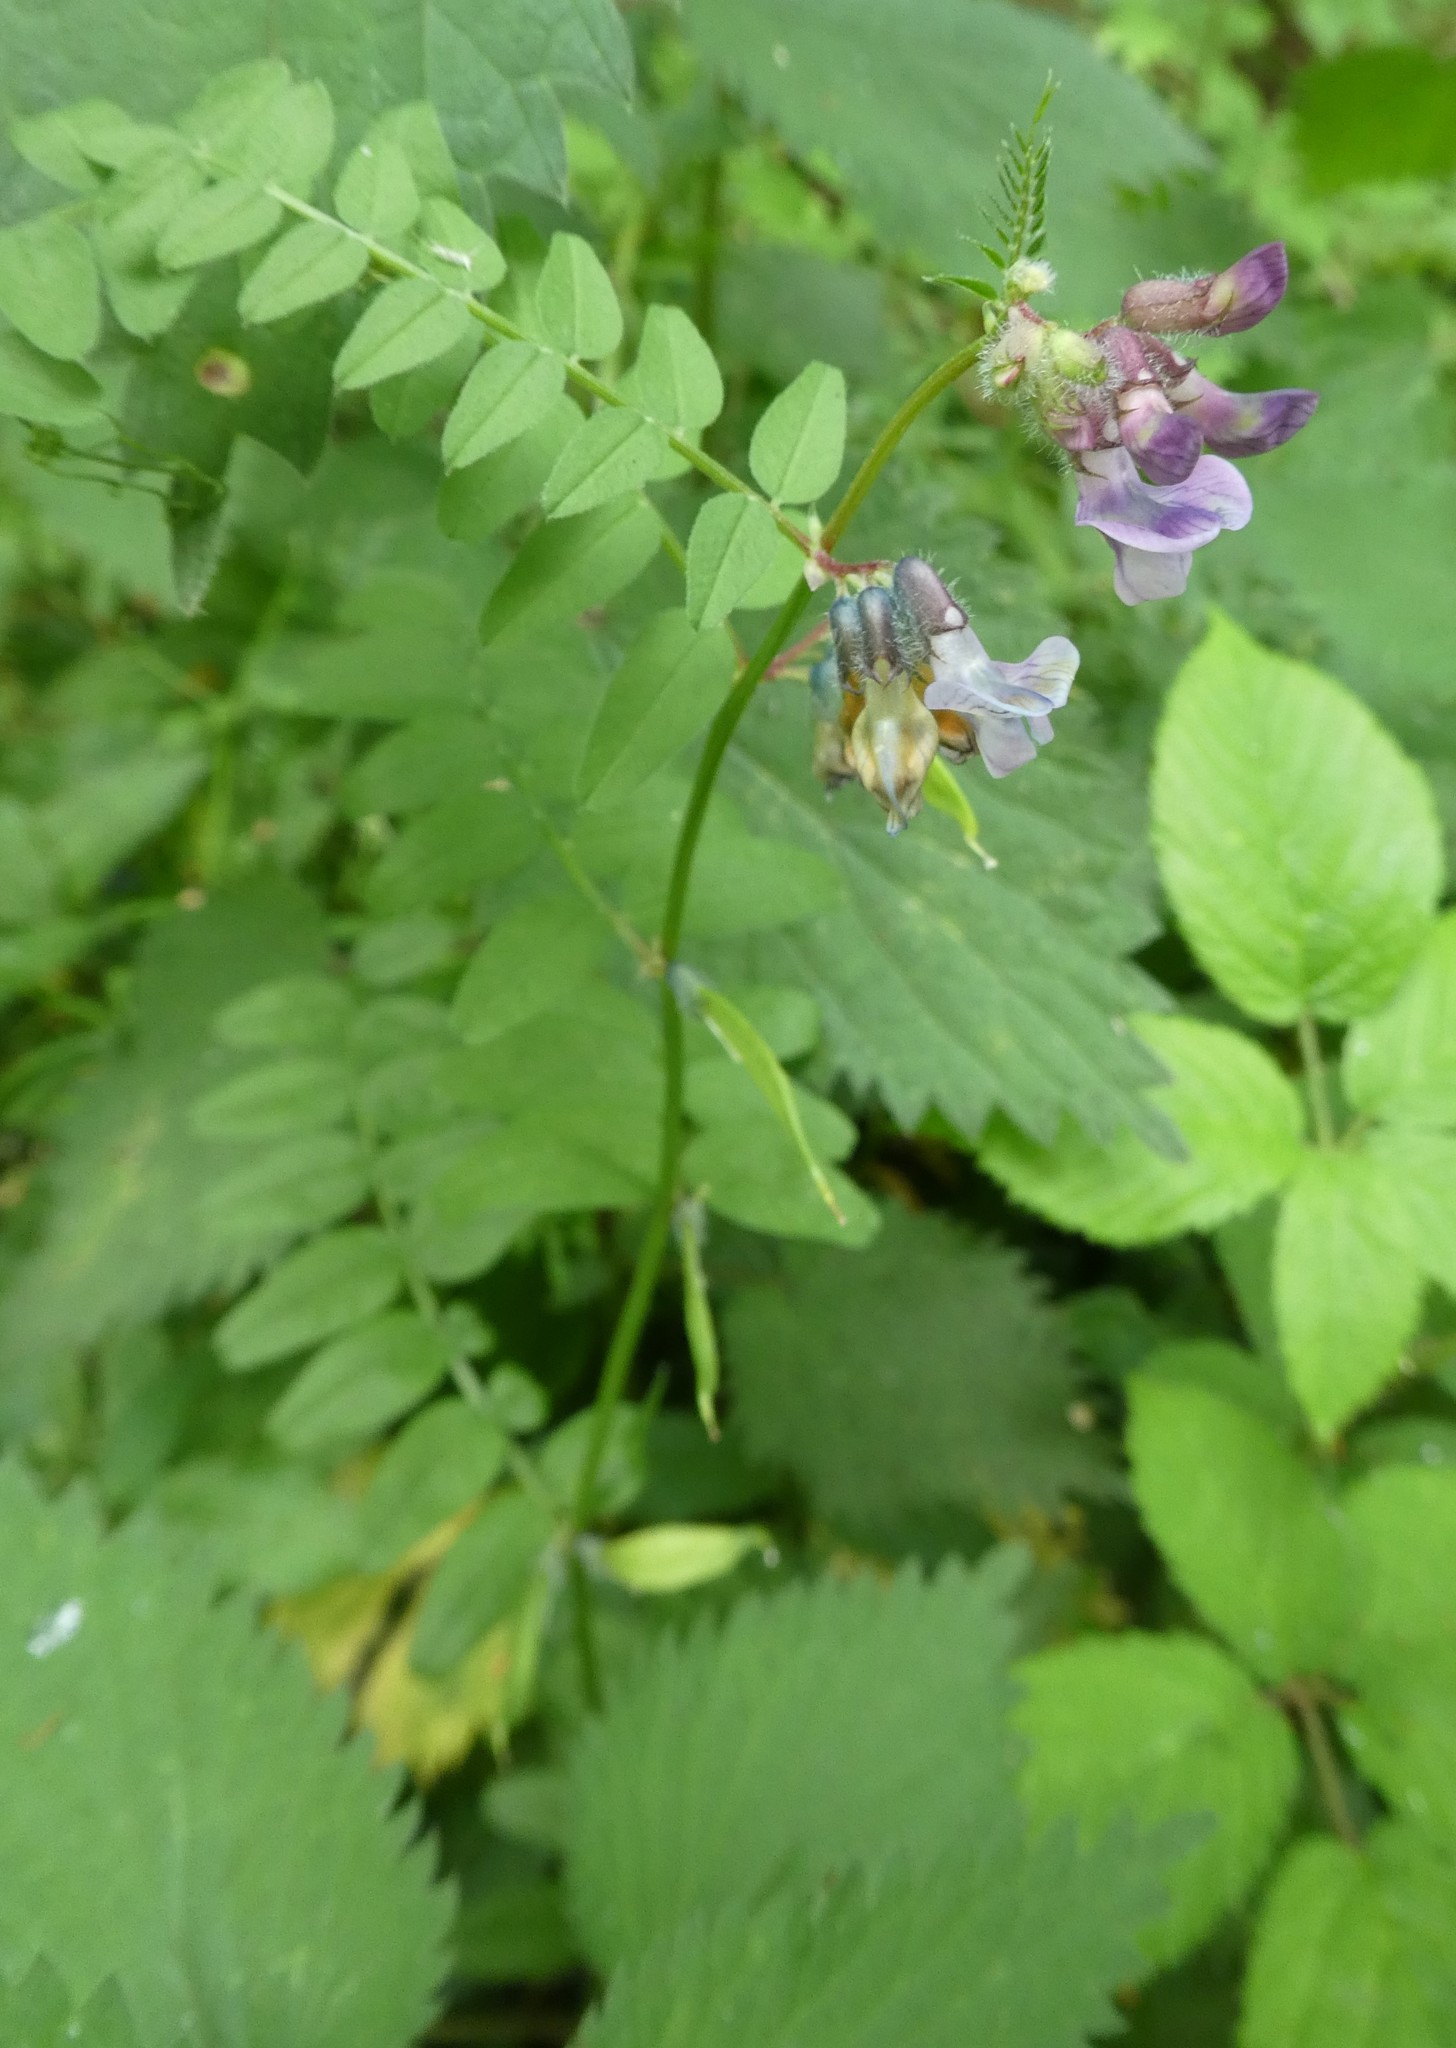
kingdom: Plantae
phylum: Tracheophyta
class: Magnoliopsida
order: Fabales
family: Fabaceae
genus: Vicia
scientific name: Vicia sepium
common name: Bush vetch
